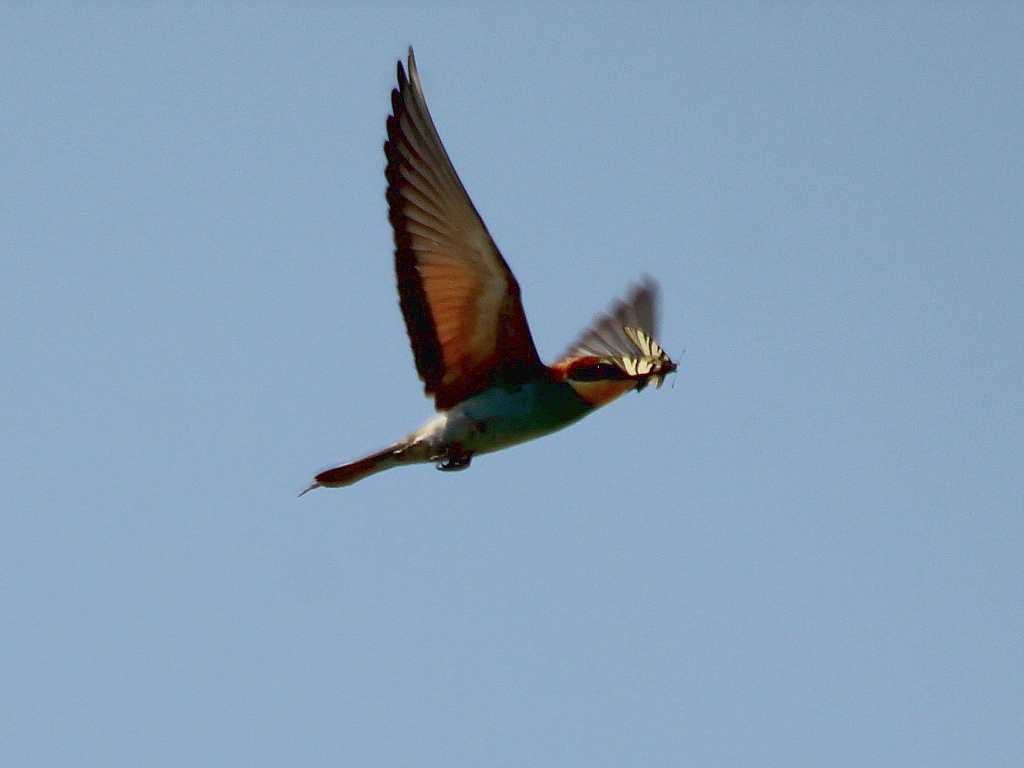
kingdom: Animalia
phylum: Chordata
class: Aves
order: Coraciiformes
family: Meropidae
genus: Merops
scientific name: Merops apiaster
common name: European bee-eater
